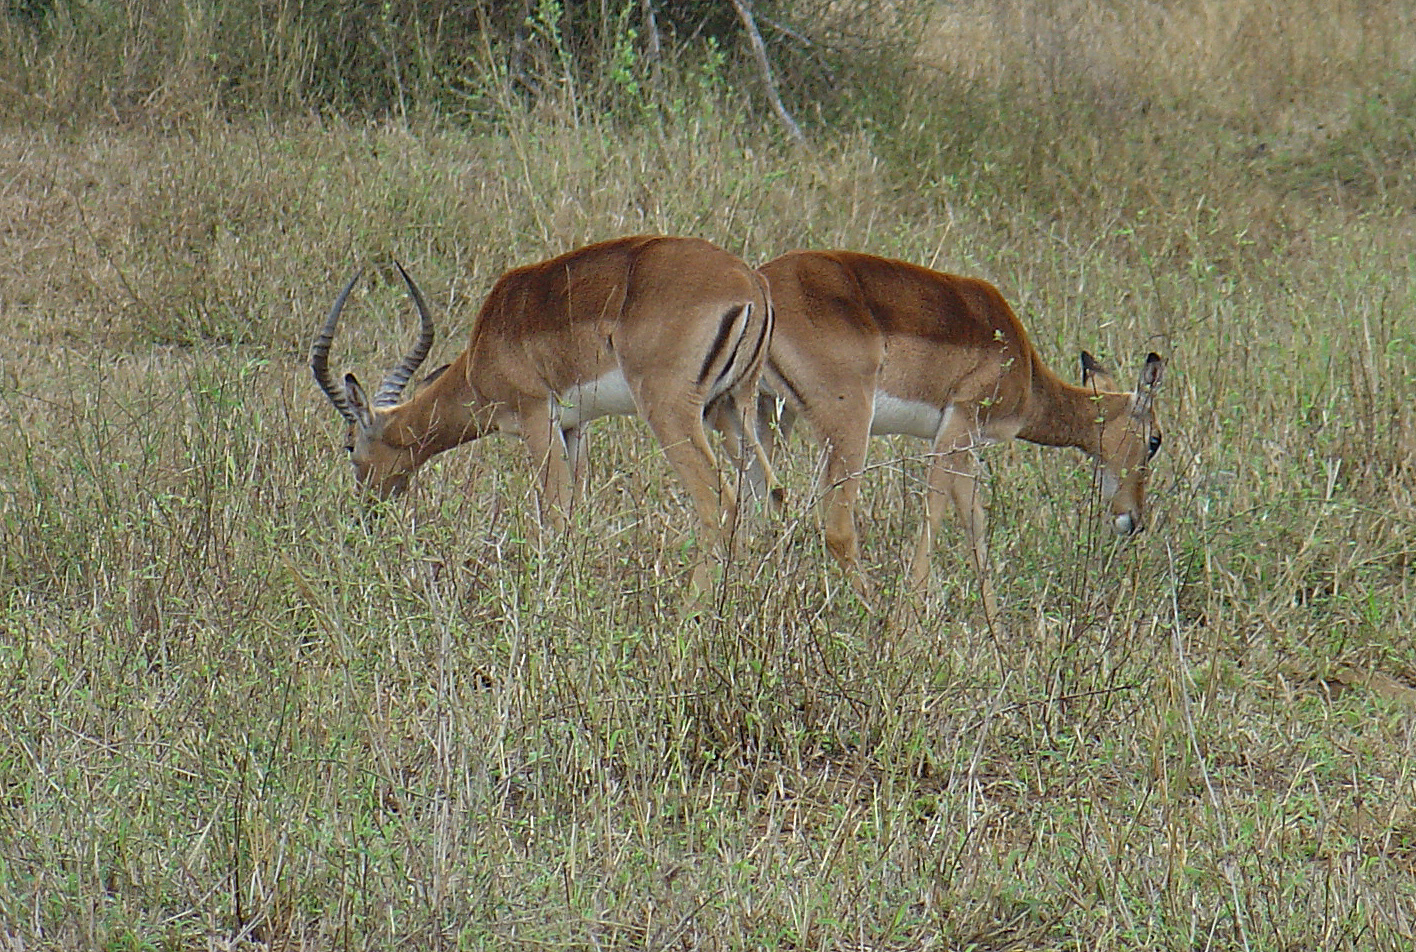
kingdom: Animalia
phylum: Chordata
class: Mammalia
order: Artiodactyla
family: Bovidae
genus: Aepyceros
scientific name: Aepyceros melampus
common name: Impala
